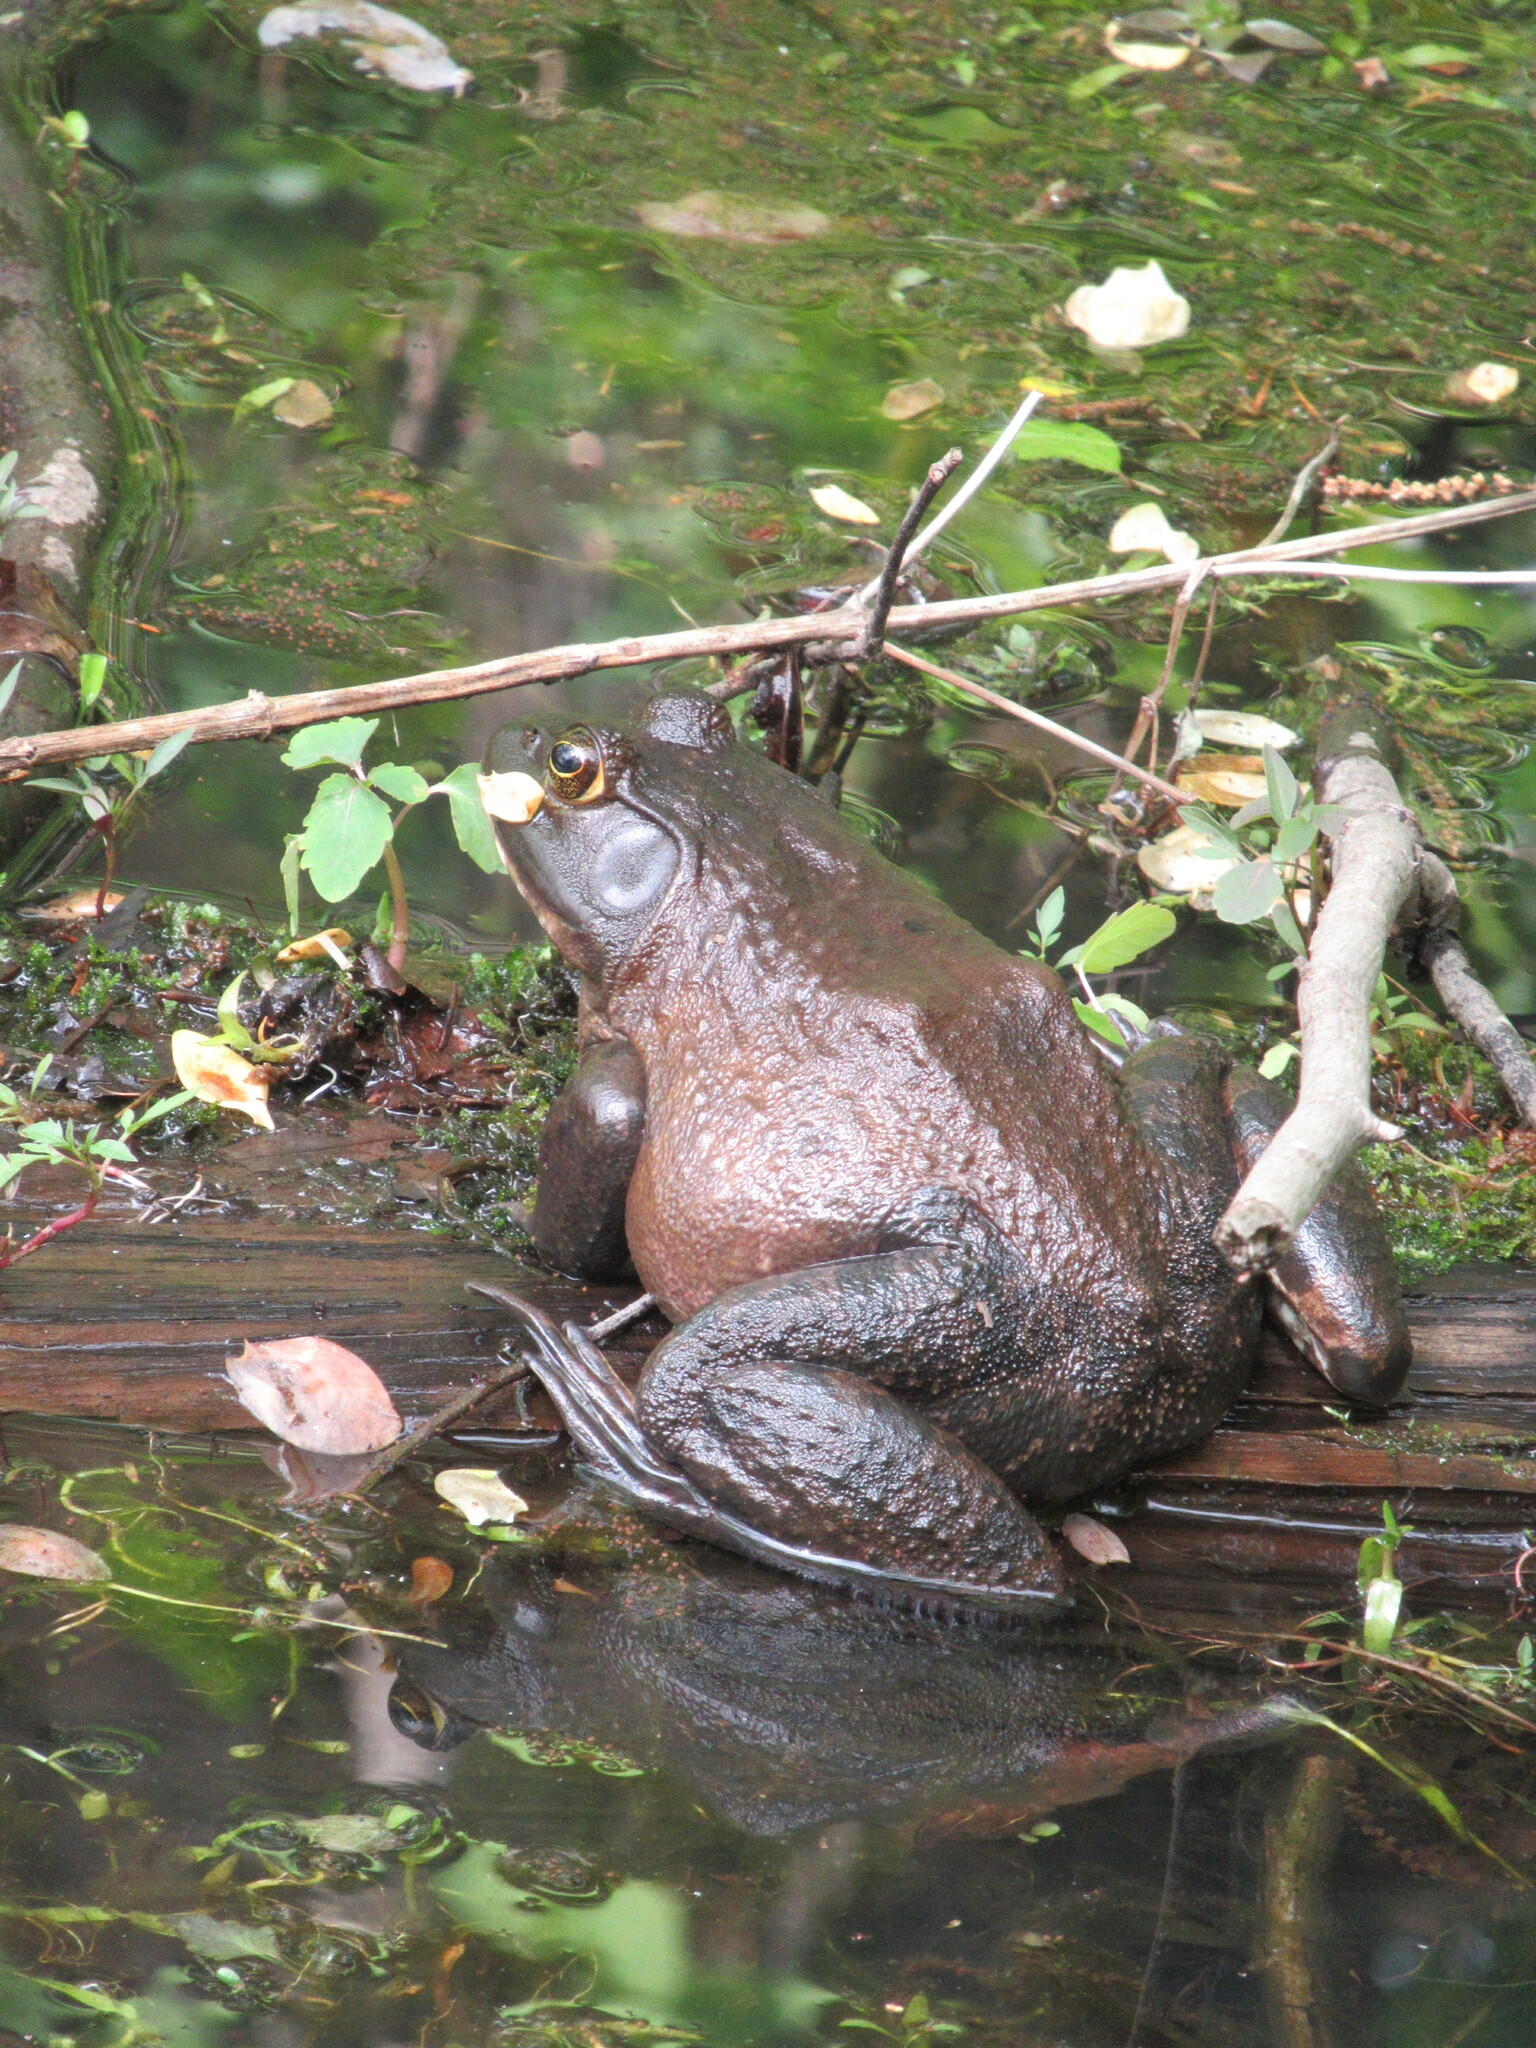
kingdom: Animalia
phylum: Chordata
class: Amphibia
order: Anura
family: Ranidae
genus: Lithobates
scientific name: Lithobates catesbeianus
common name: American bullfrog
